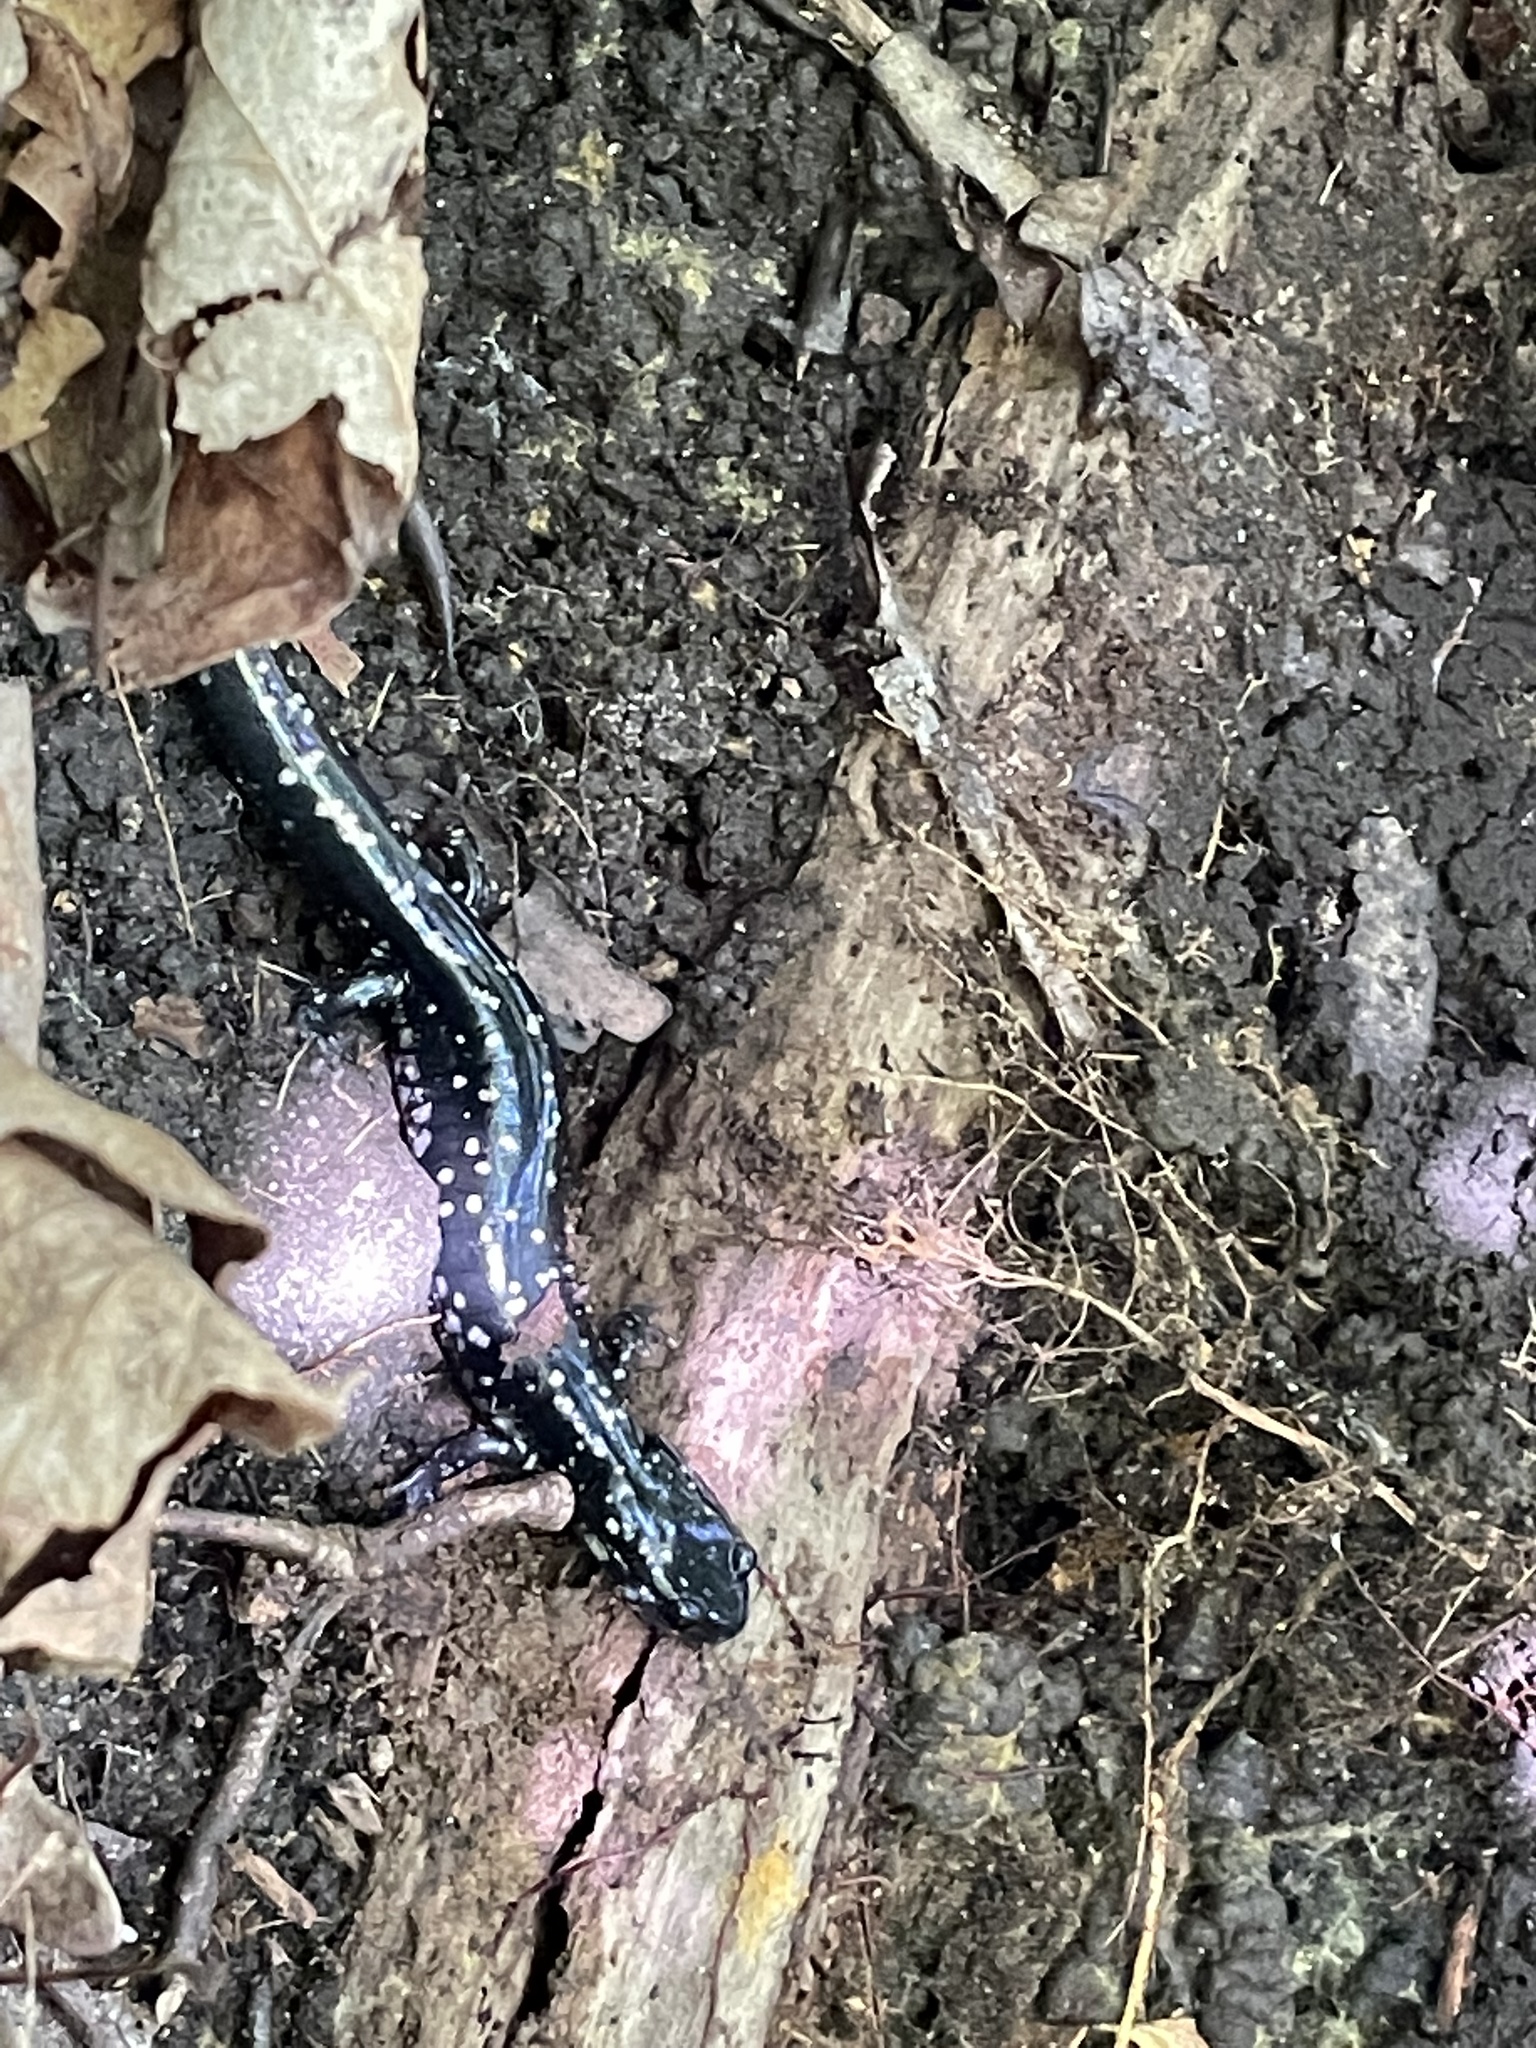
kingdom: Animalia
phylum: Chordata
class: Amphibia
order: Caudata
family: Plethodontidae
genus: Plethodon
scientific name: Plethodon glutinosus
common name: Northern slimy salamander
